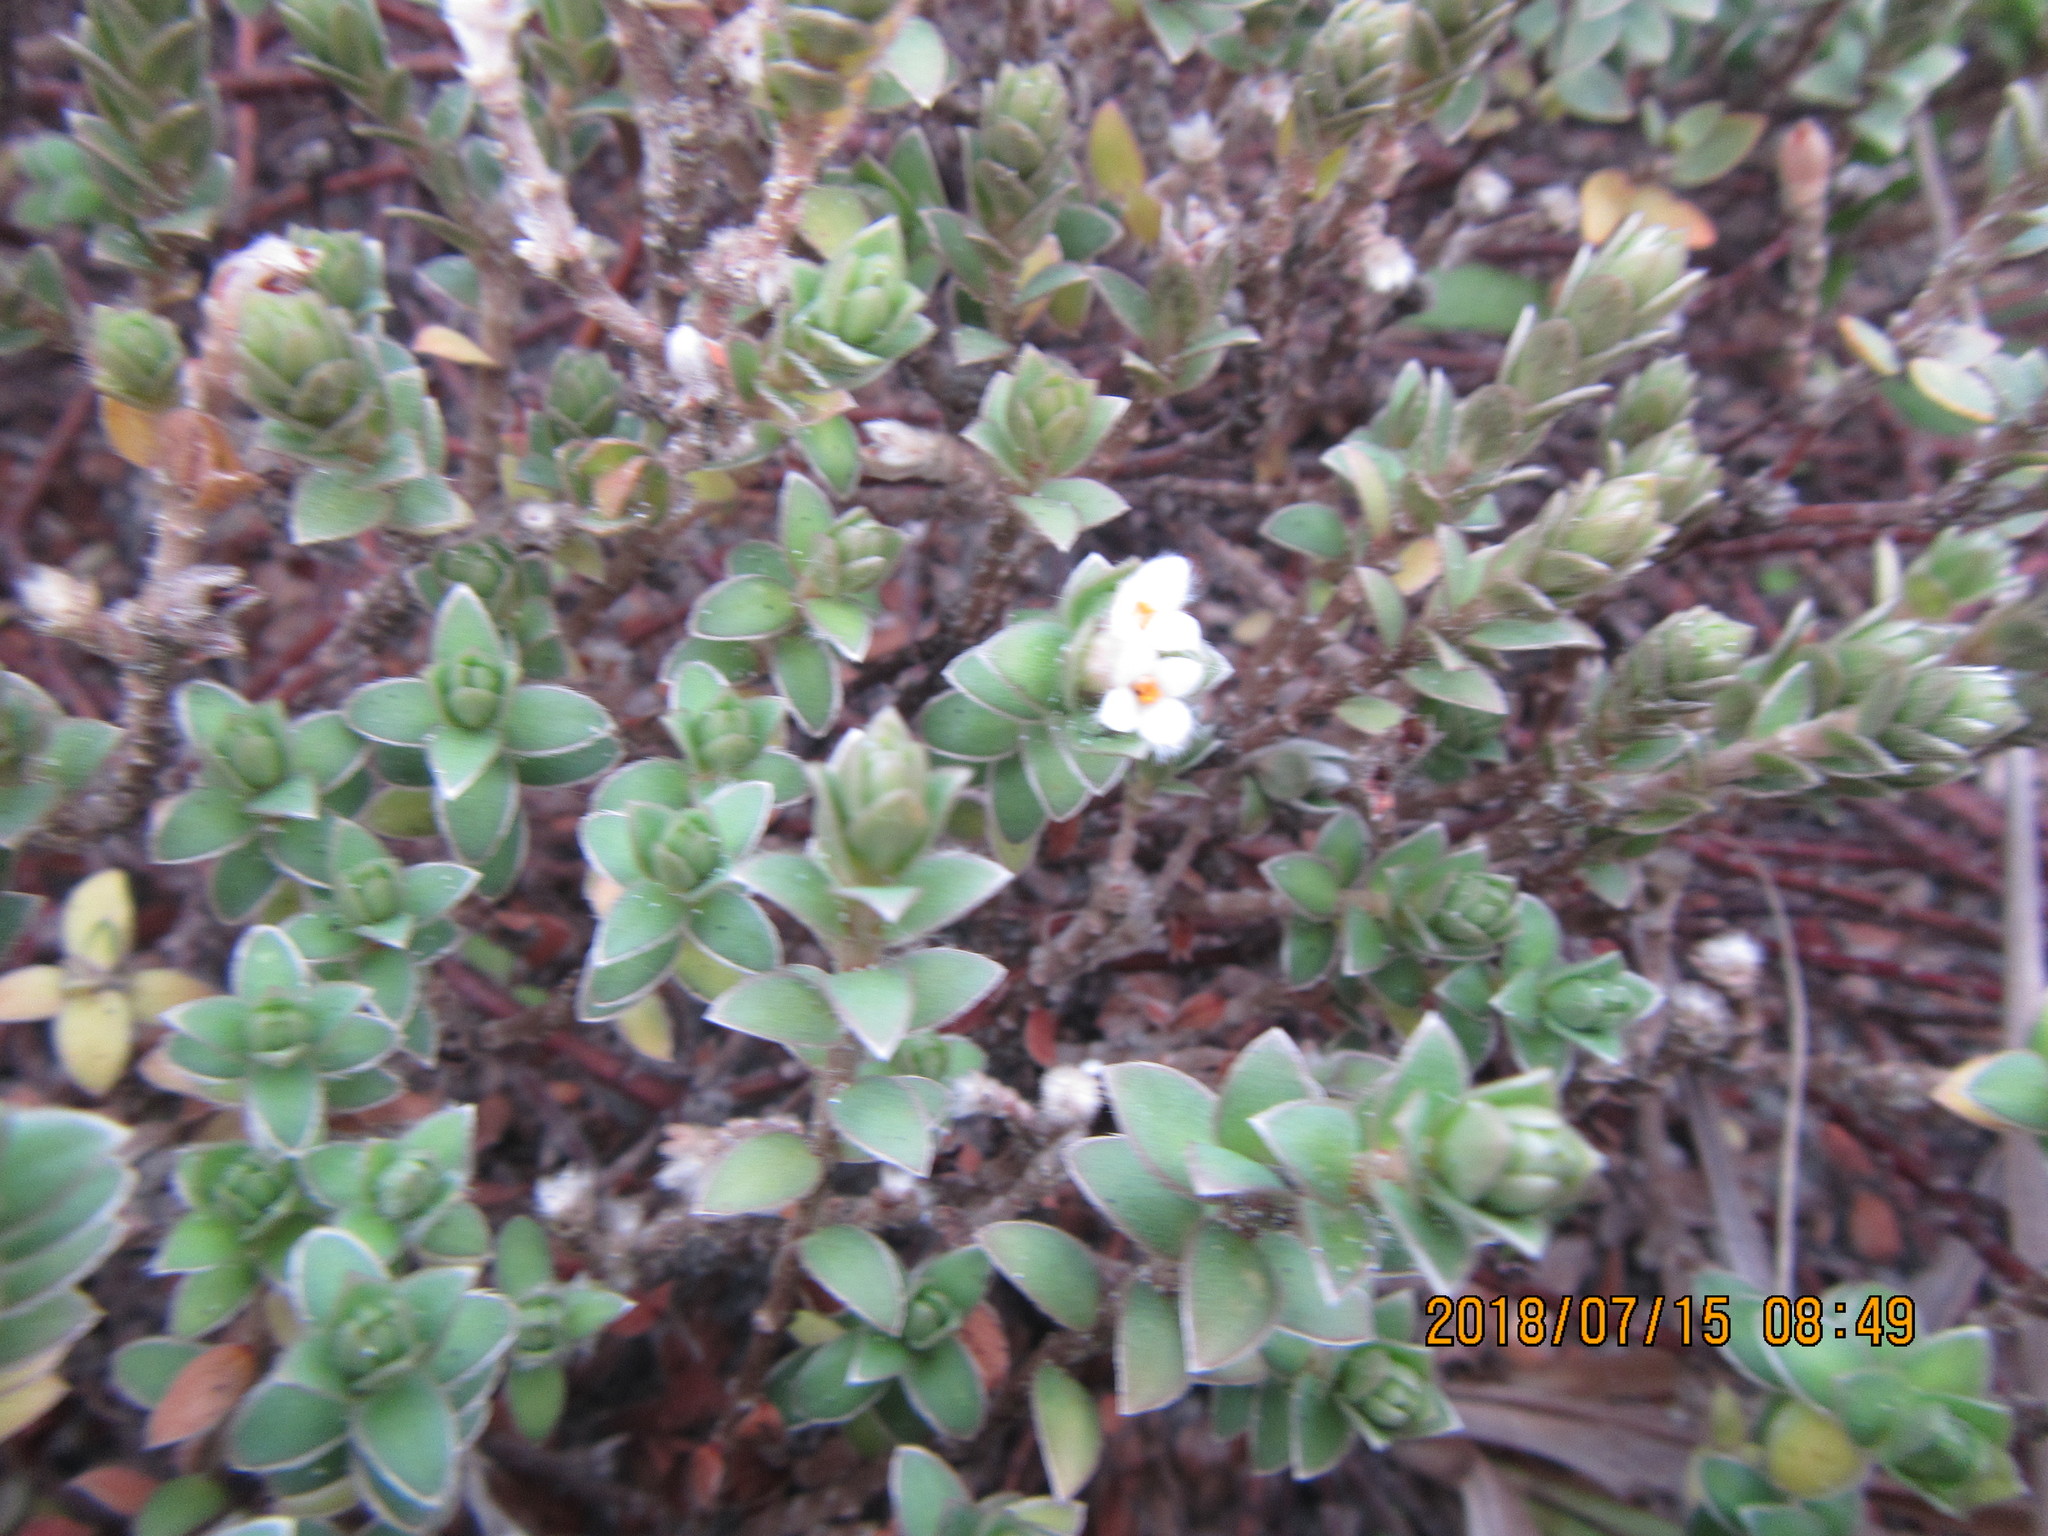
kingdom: Plantae
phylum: Tracheophyta
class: Magnoliopsida
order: Malvales
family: Thymelaeaceae
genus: Pimelea
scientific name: Pimelea villosa
